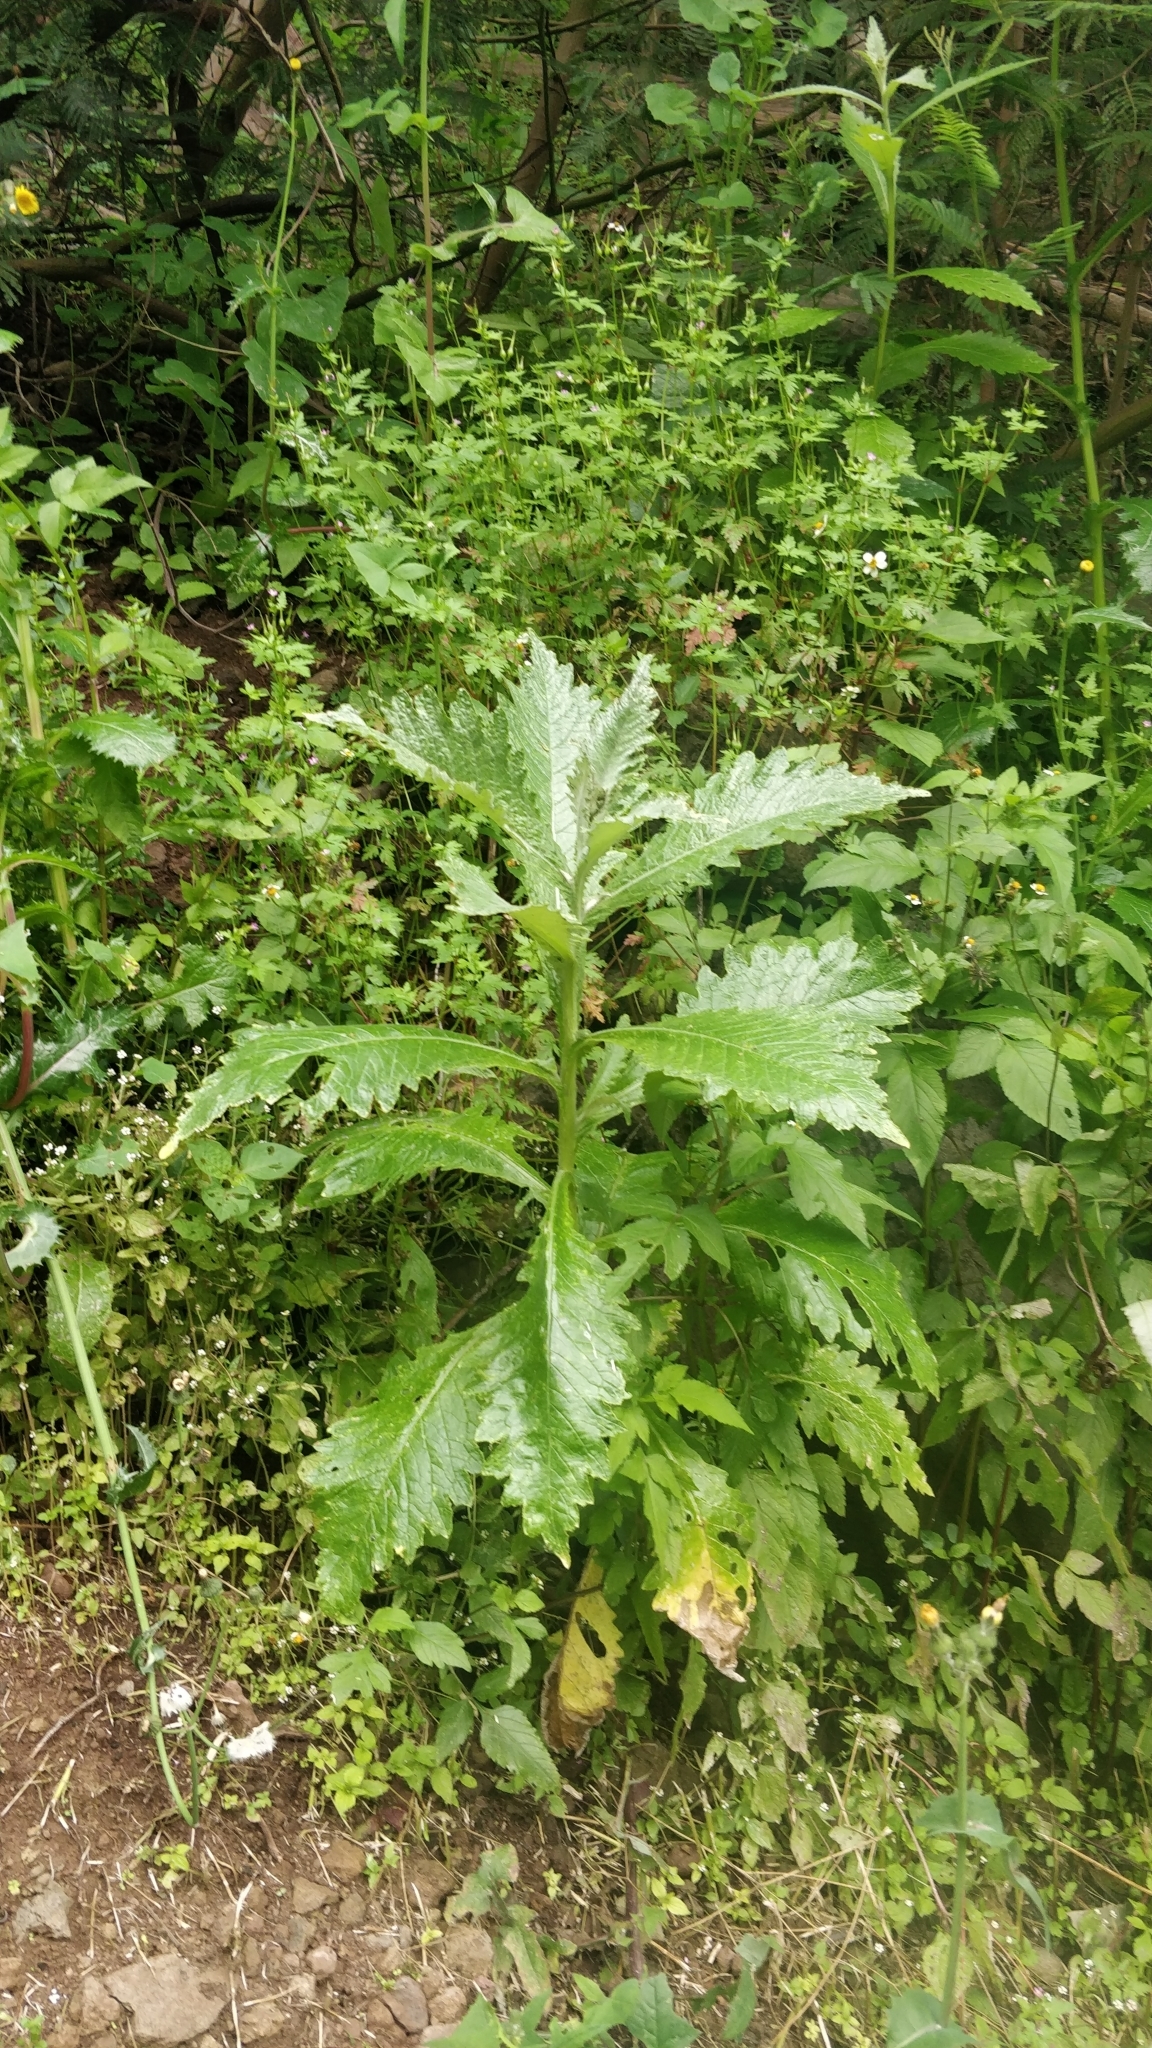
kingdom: Plantae
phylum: Tracheophyta
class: Magnoliopsida
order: Asterales
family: Asteraceae
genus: Carduus
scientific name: Carduus squarrosus
